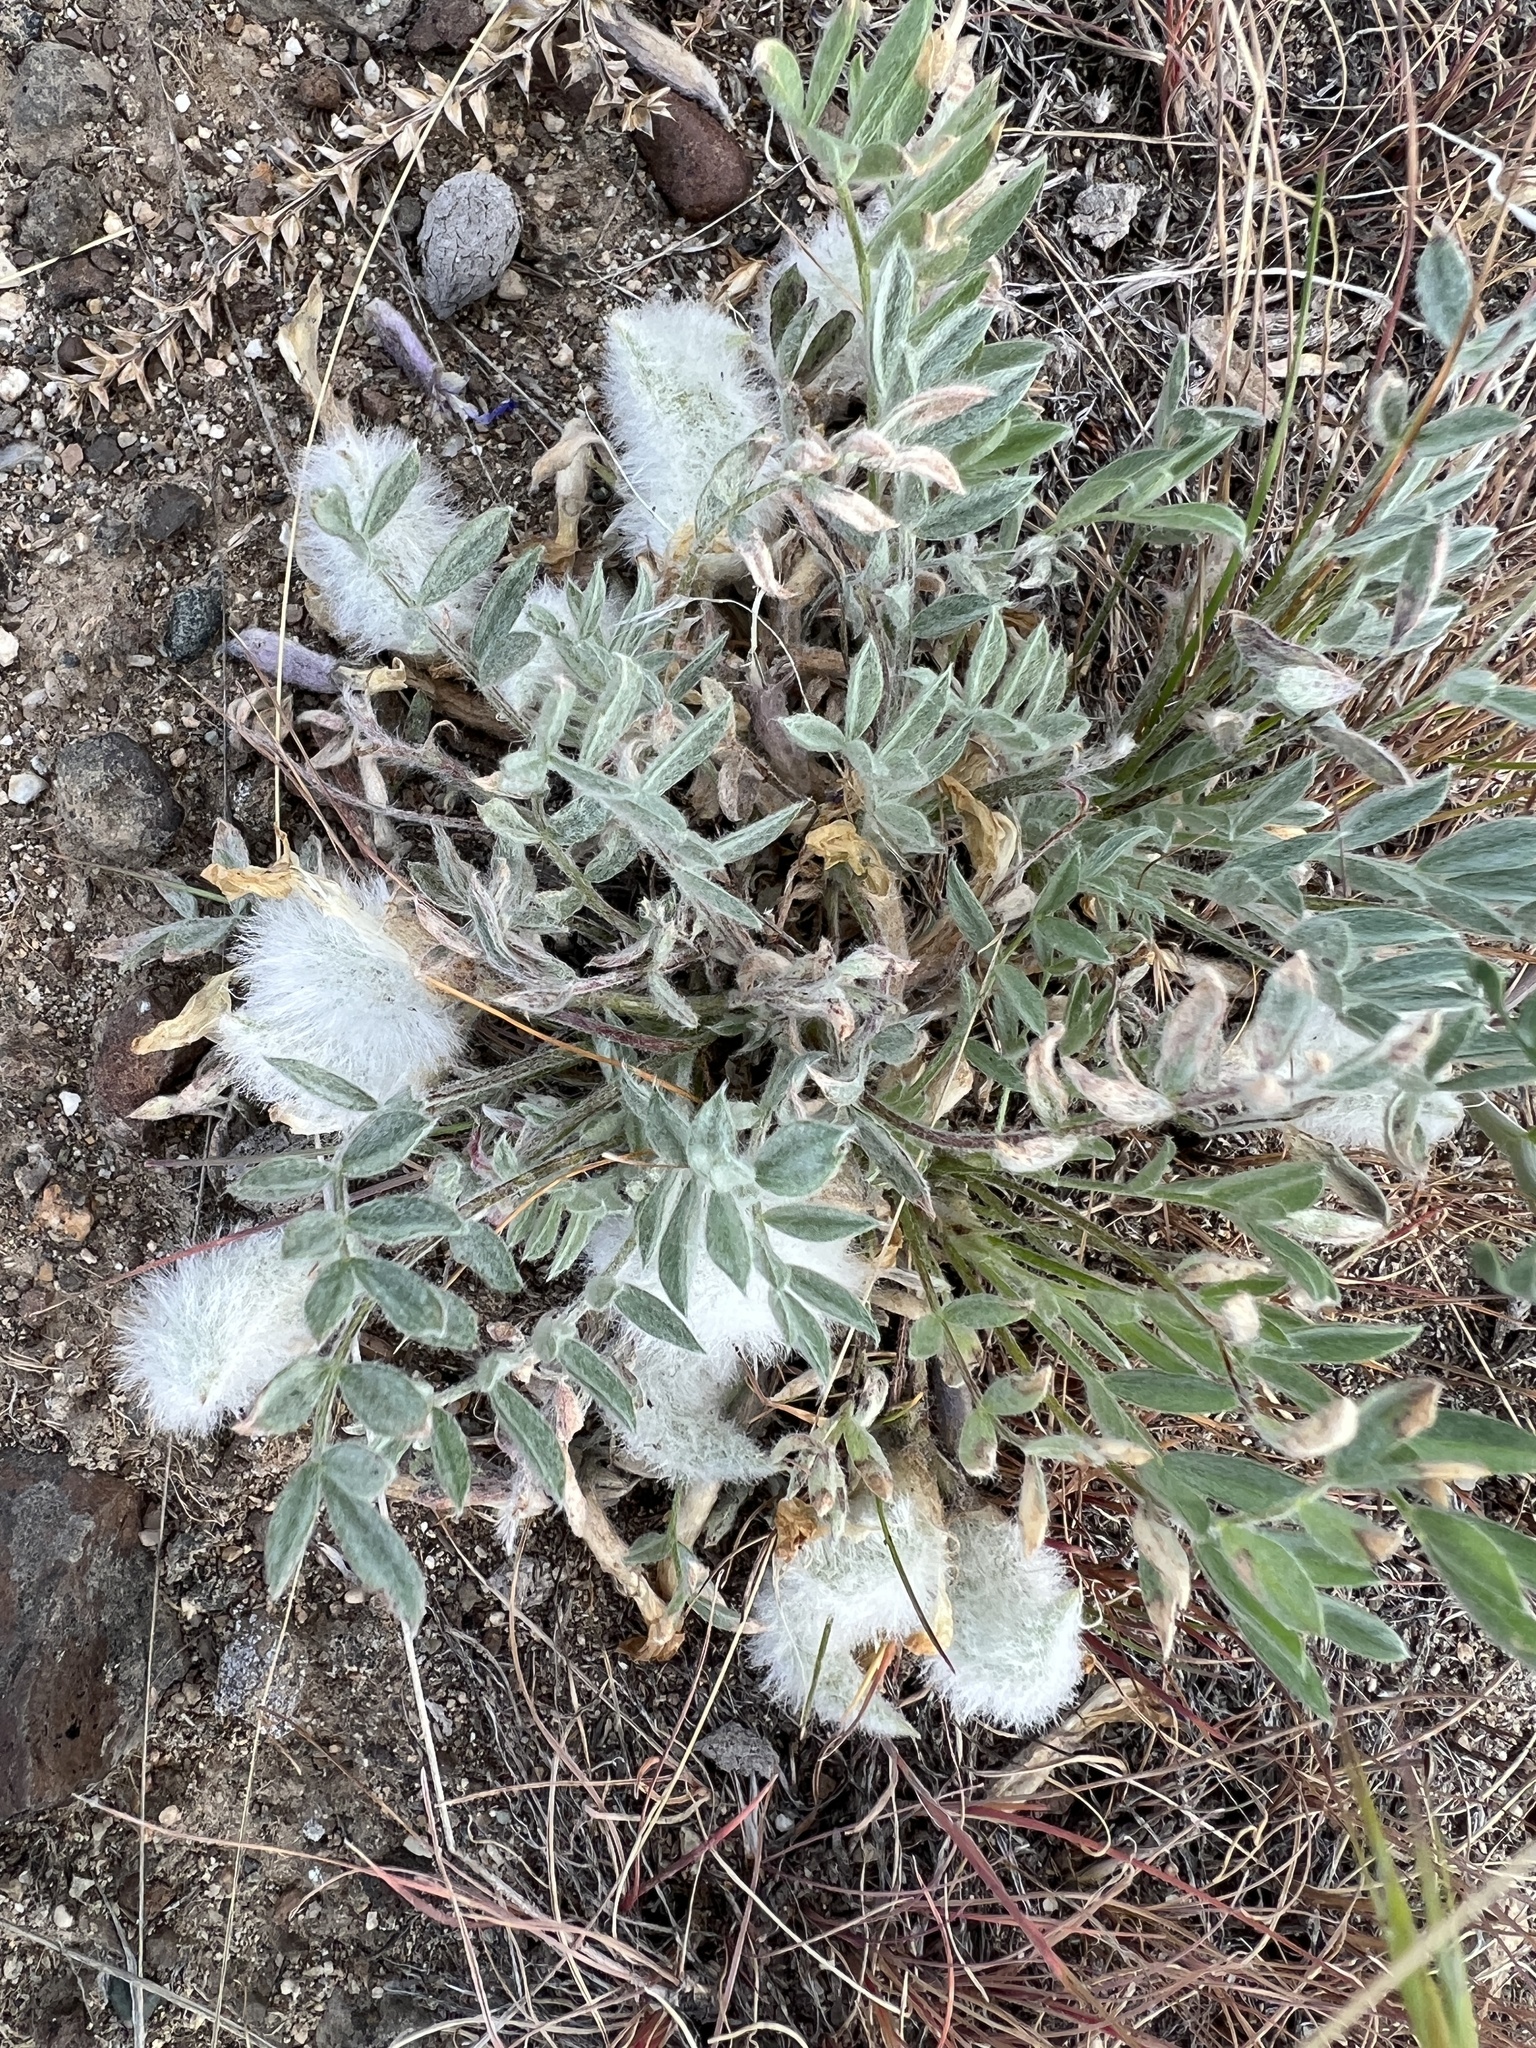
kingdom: Plantae
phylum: Tracheophyta
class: Magnoliopsida
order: Fabales
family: Fabaceae
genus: Astragalus
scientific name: Astragalus purshii
